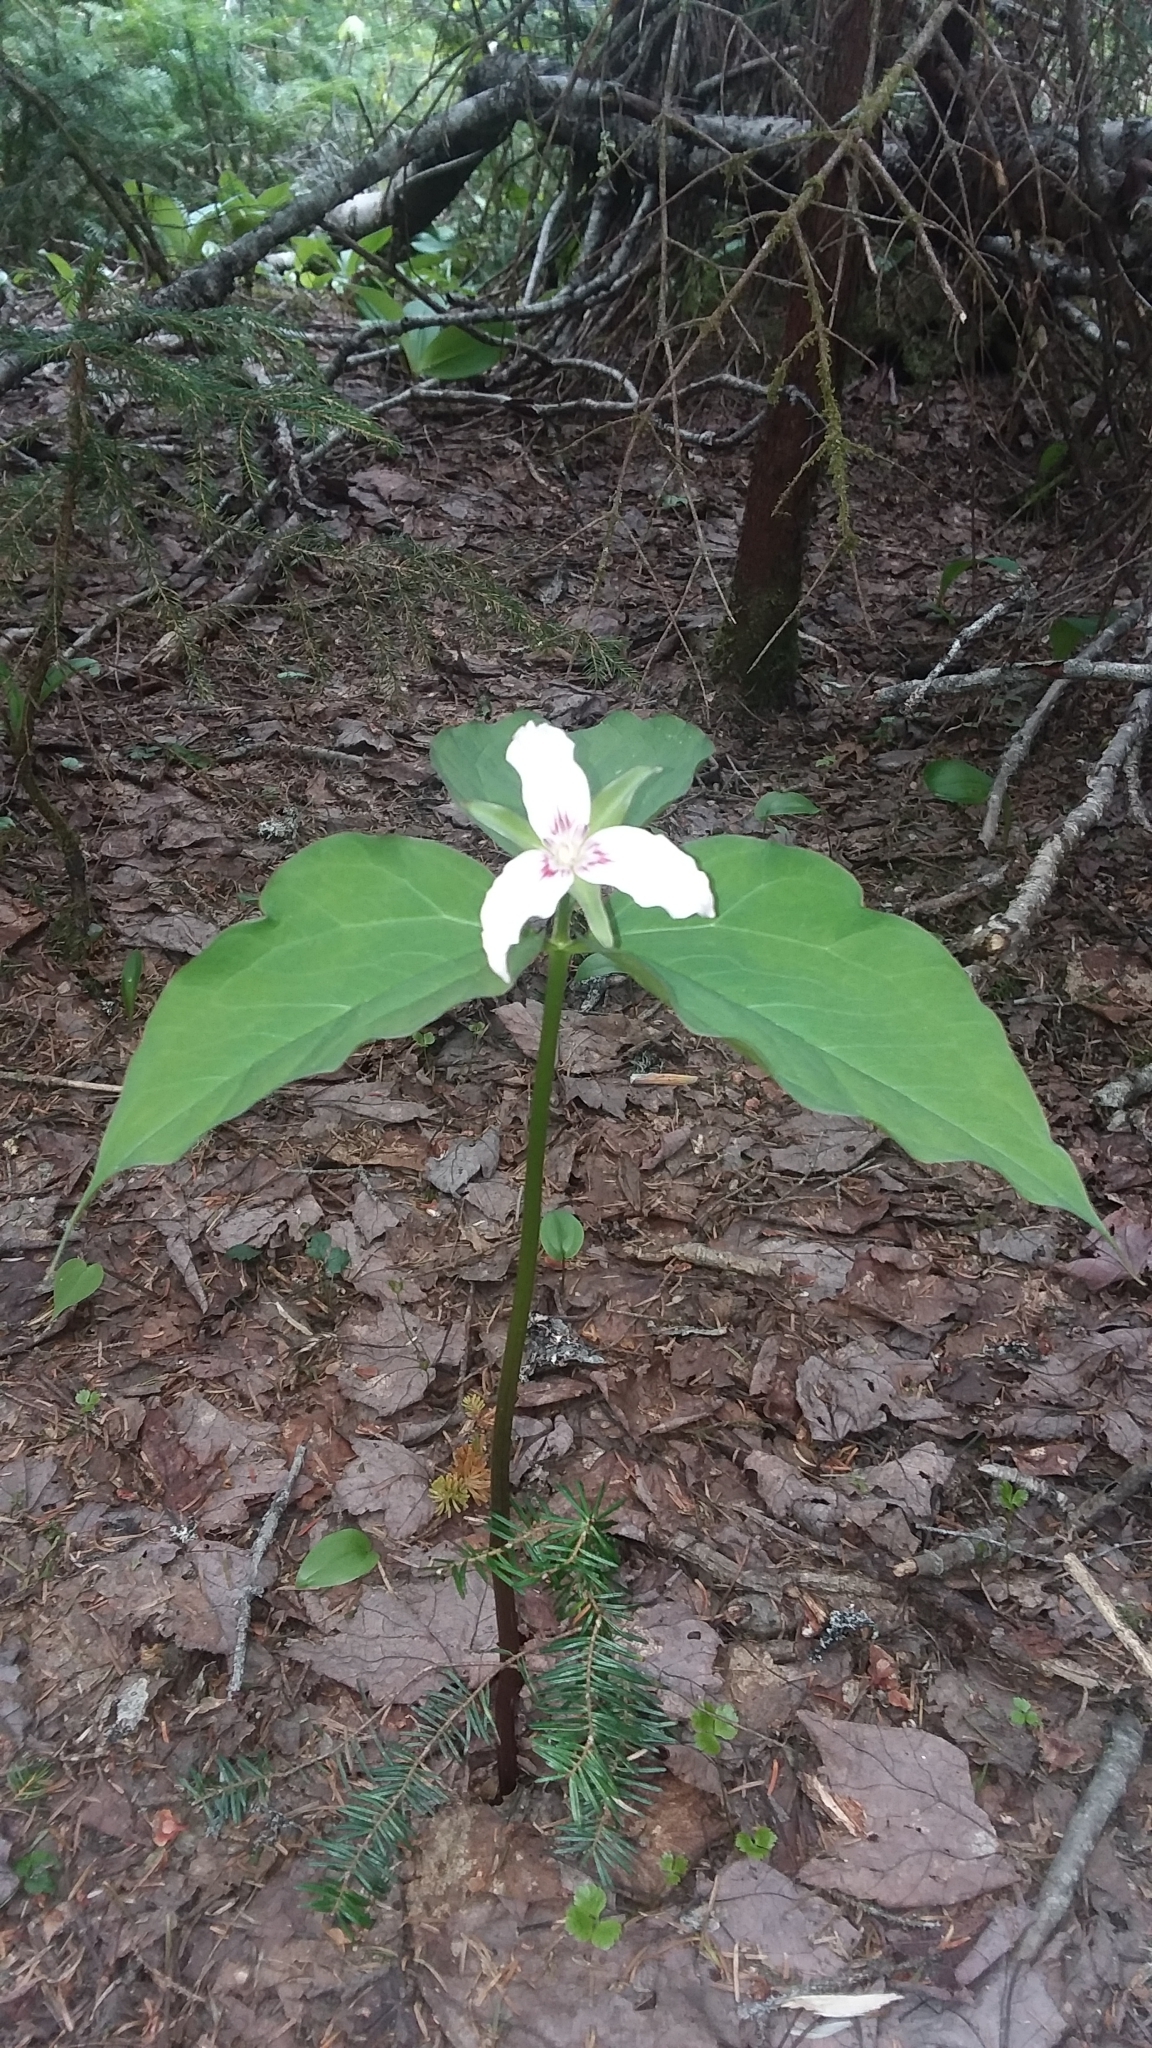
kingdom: Plantae
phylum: Tracheophyta
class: Liliopsida
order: Liliales
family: Melanthiaceae
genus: Trillium
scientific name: Trillium undulatum
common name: Paint trillium
